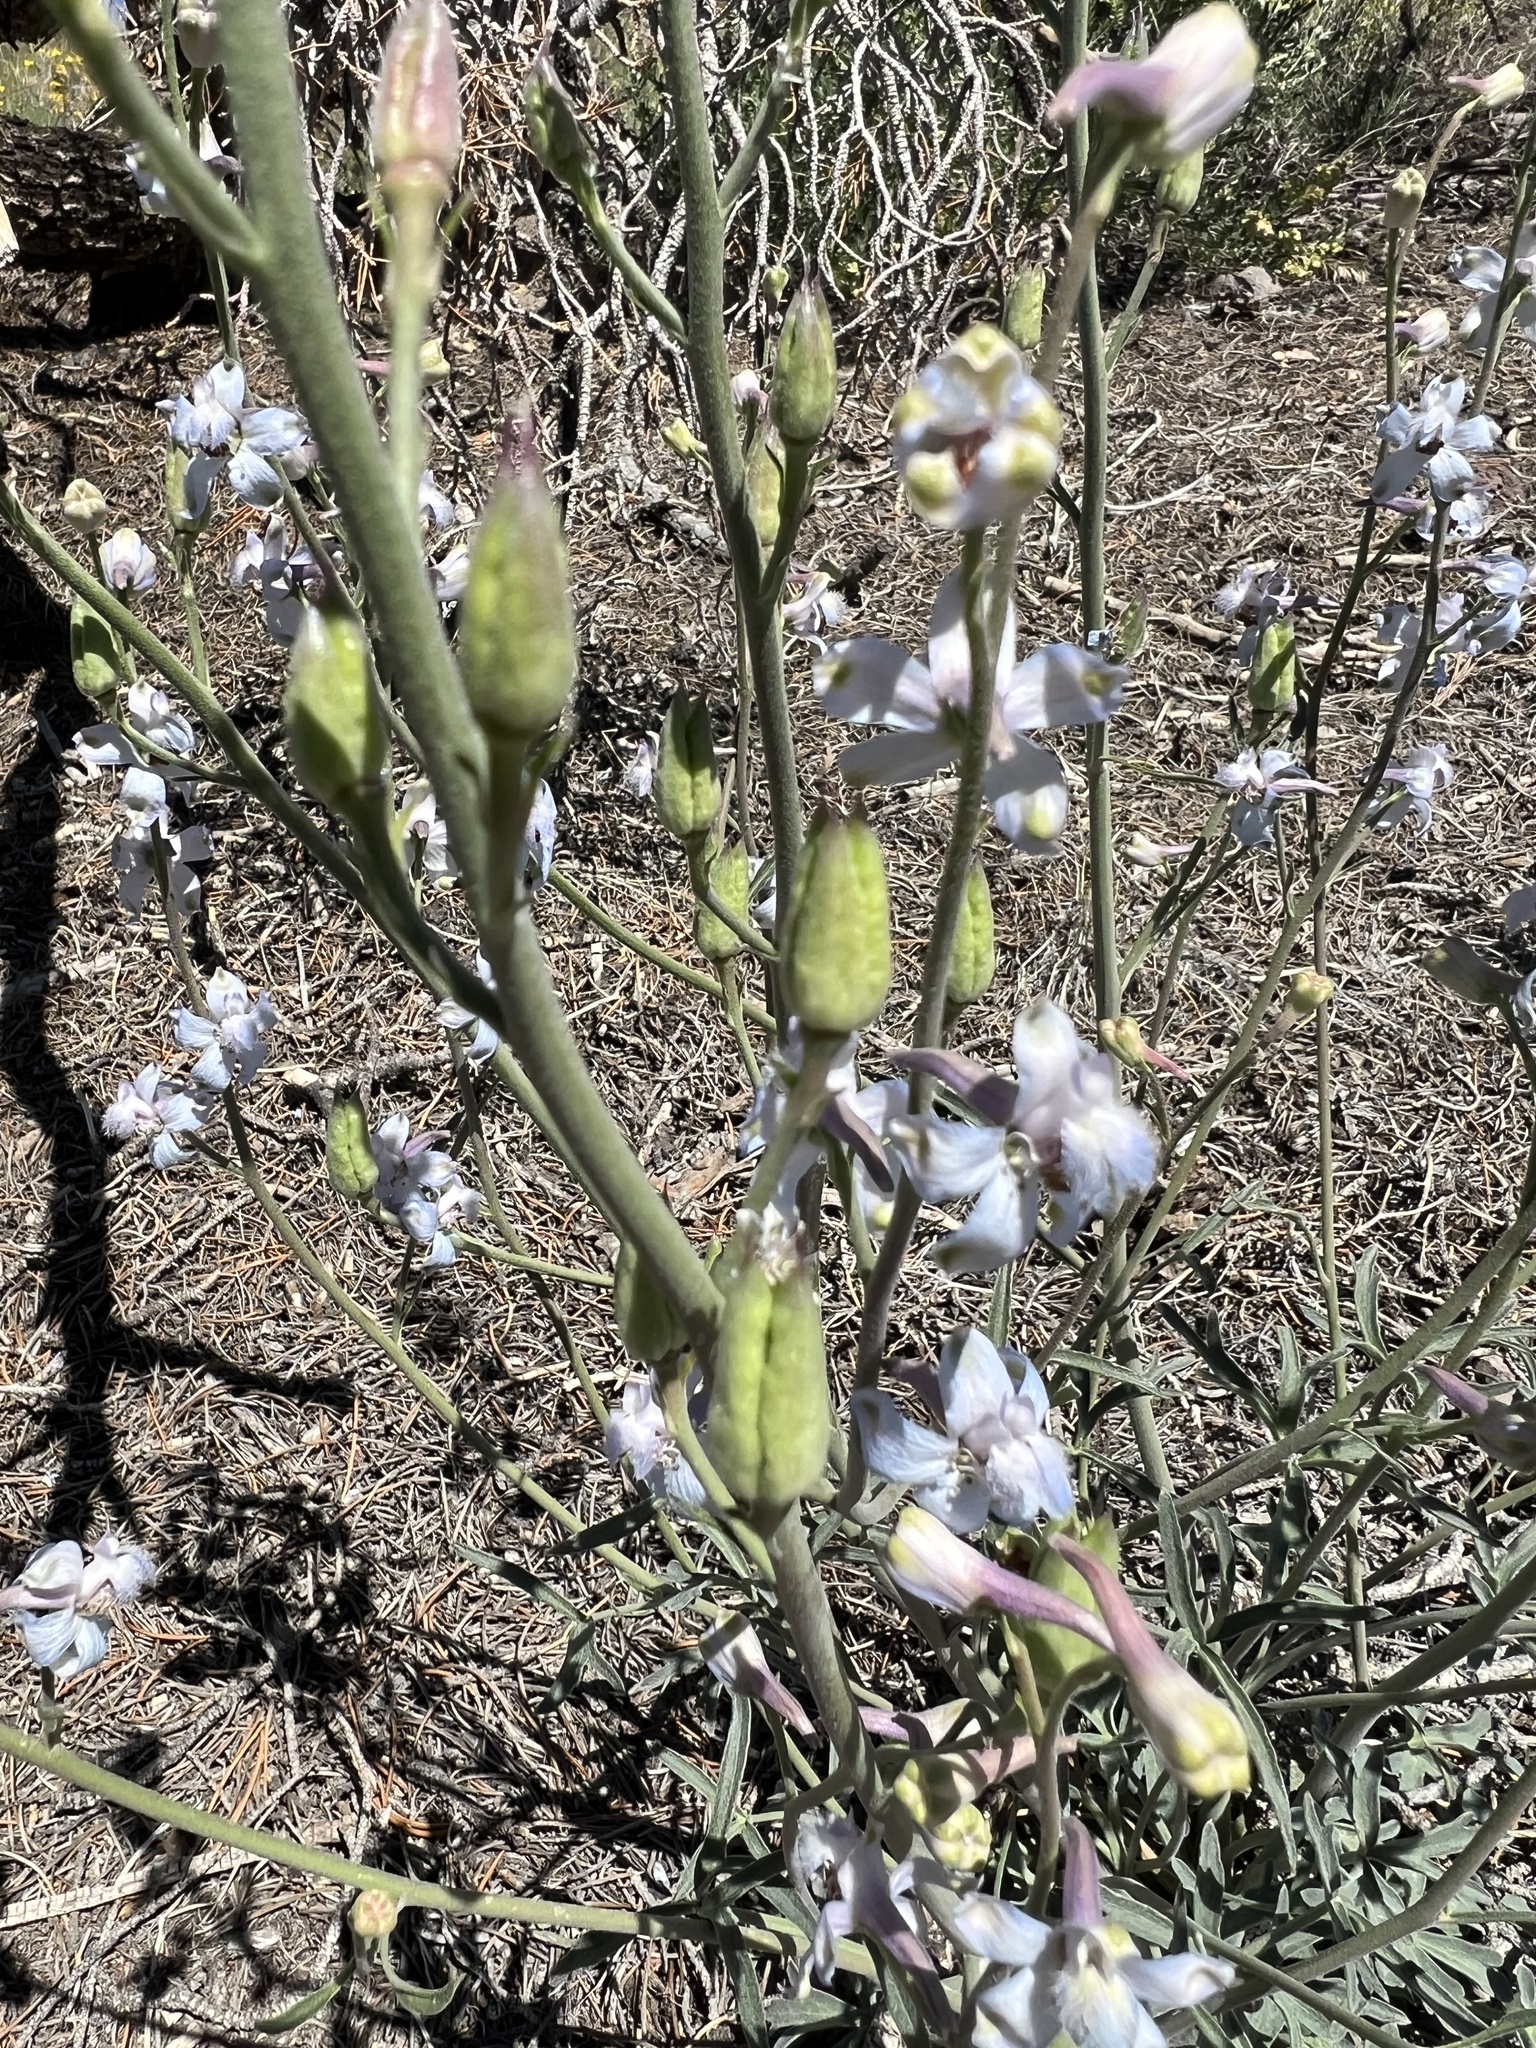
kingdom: Plantae
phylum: Tracheophyta
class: Magnoliopsida
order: Ranunculales
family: Ranunculaceae
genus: Delphinium
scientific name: Delphinium parishii
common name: Apache larkspur
